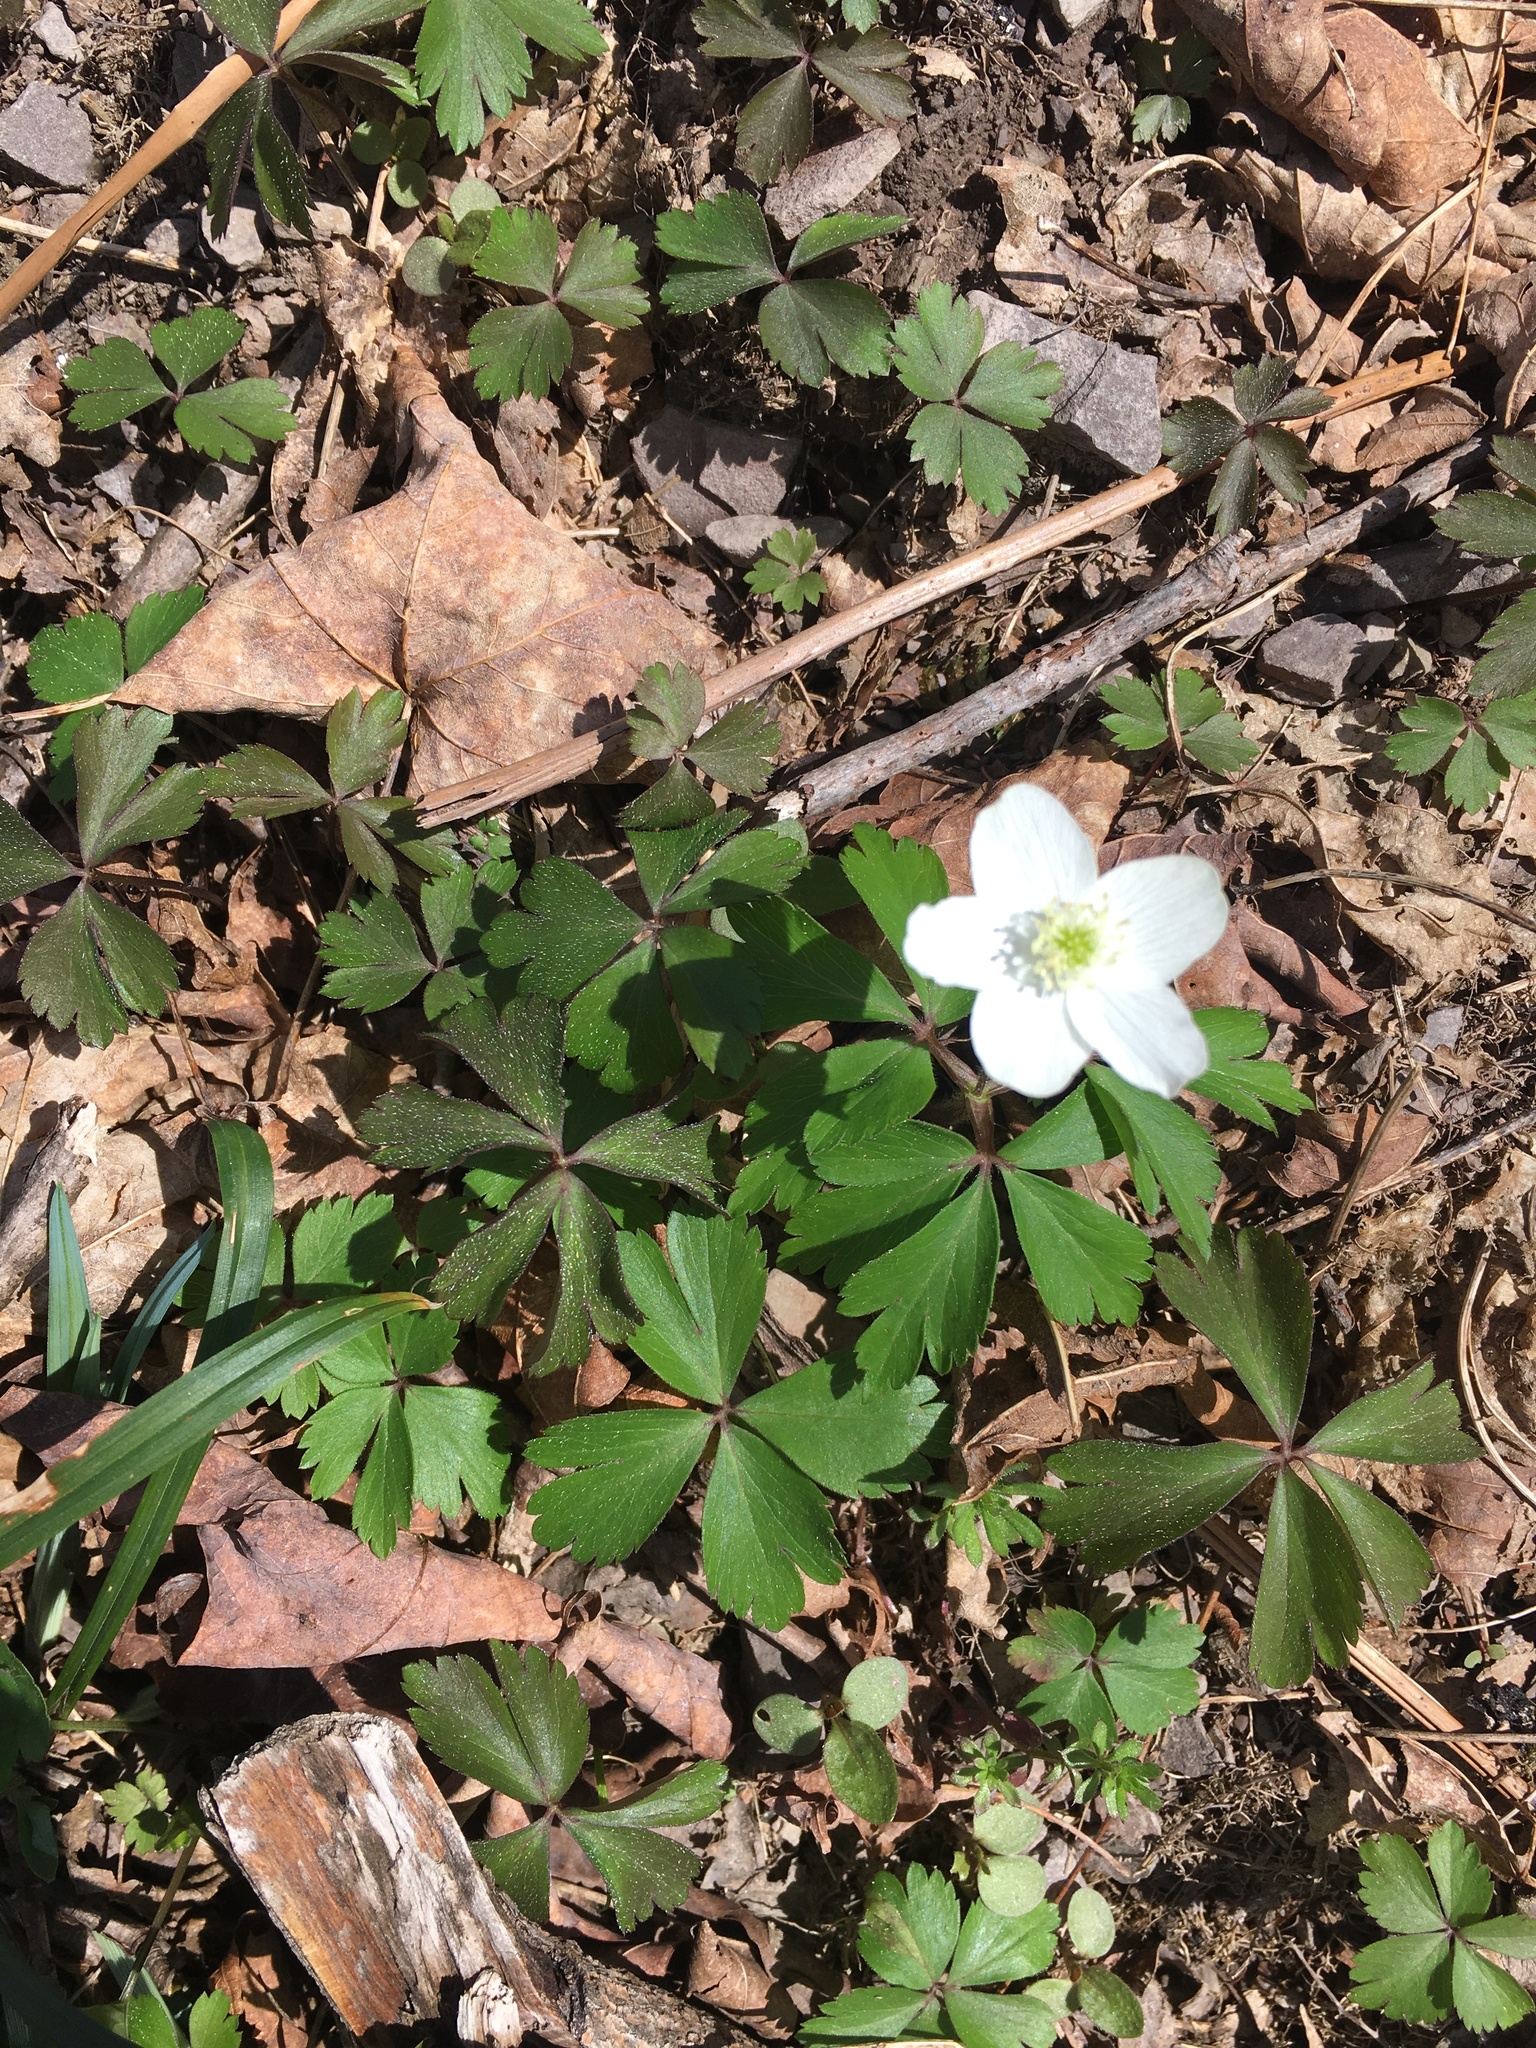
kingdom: Plantae
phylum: Tracheophyta
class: Magnoliopsida
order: Ranunculales
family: Ranunculaceae
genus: Anemone
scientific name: Anemone quinquefolia
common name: Wood anemone
